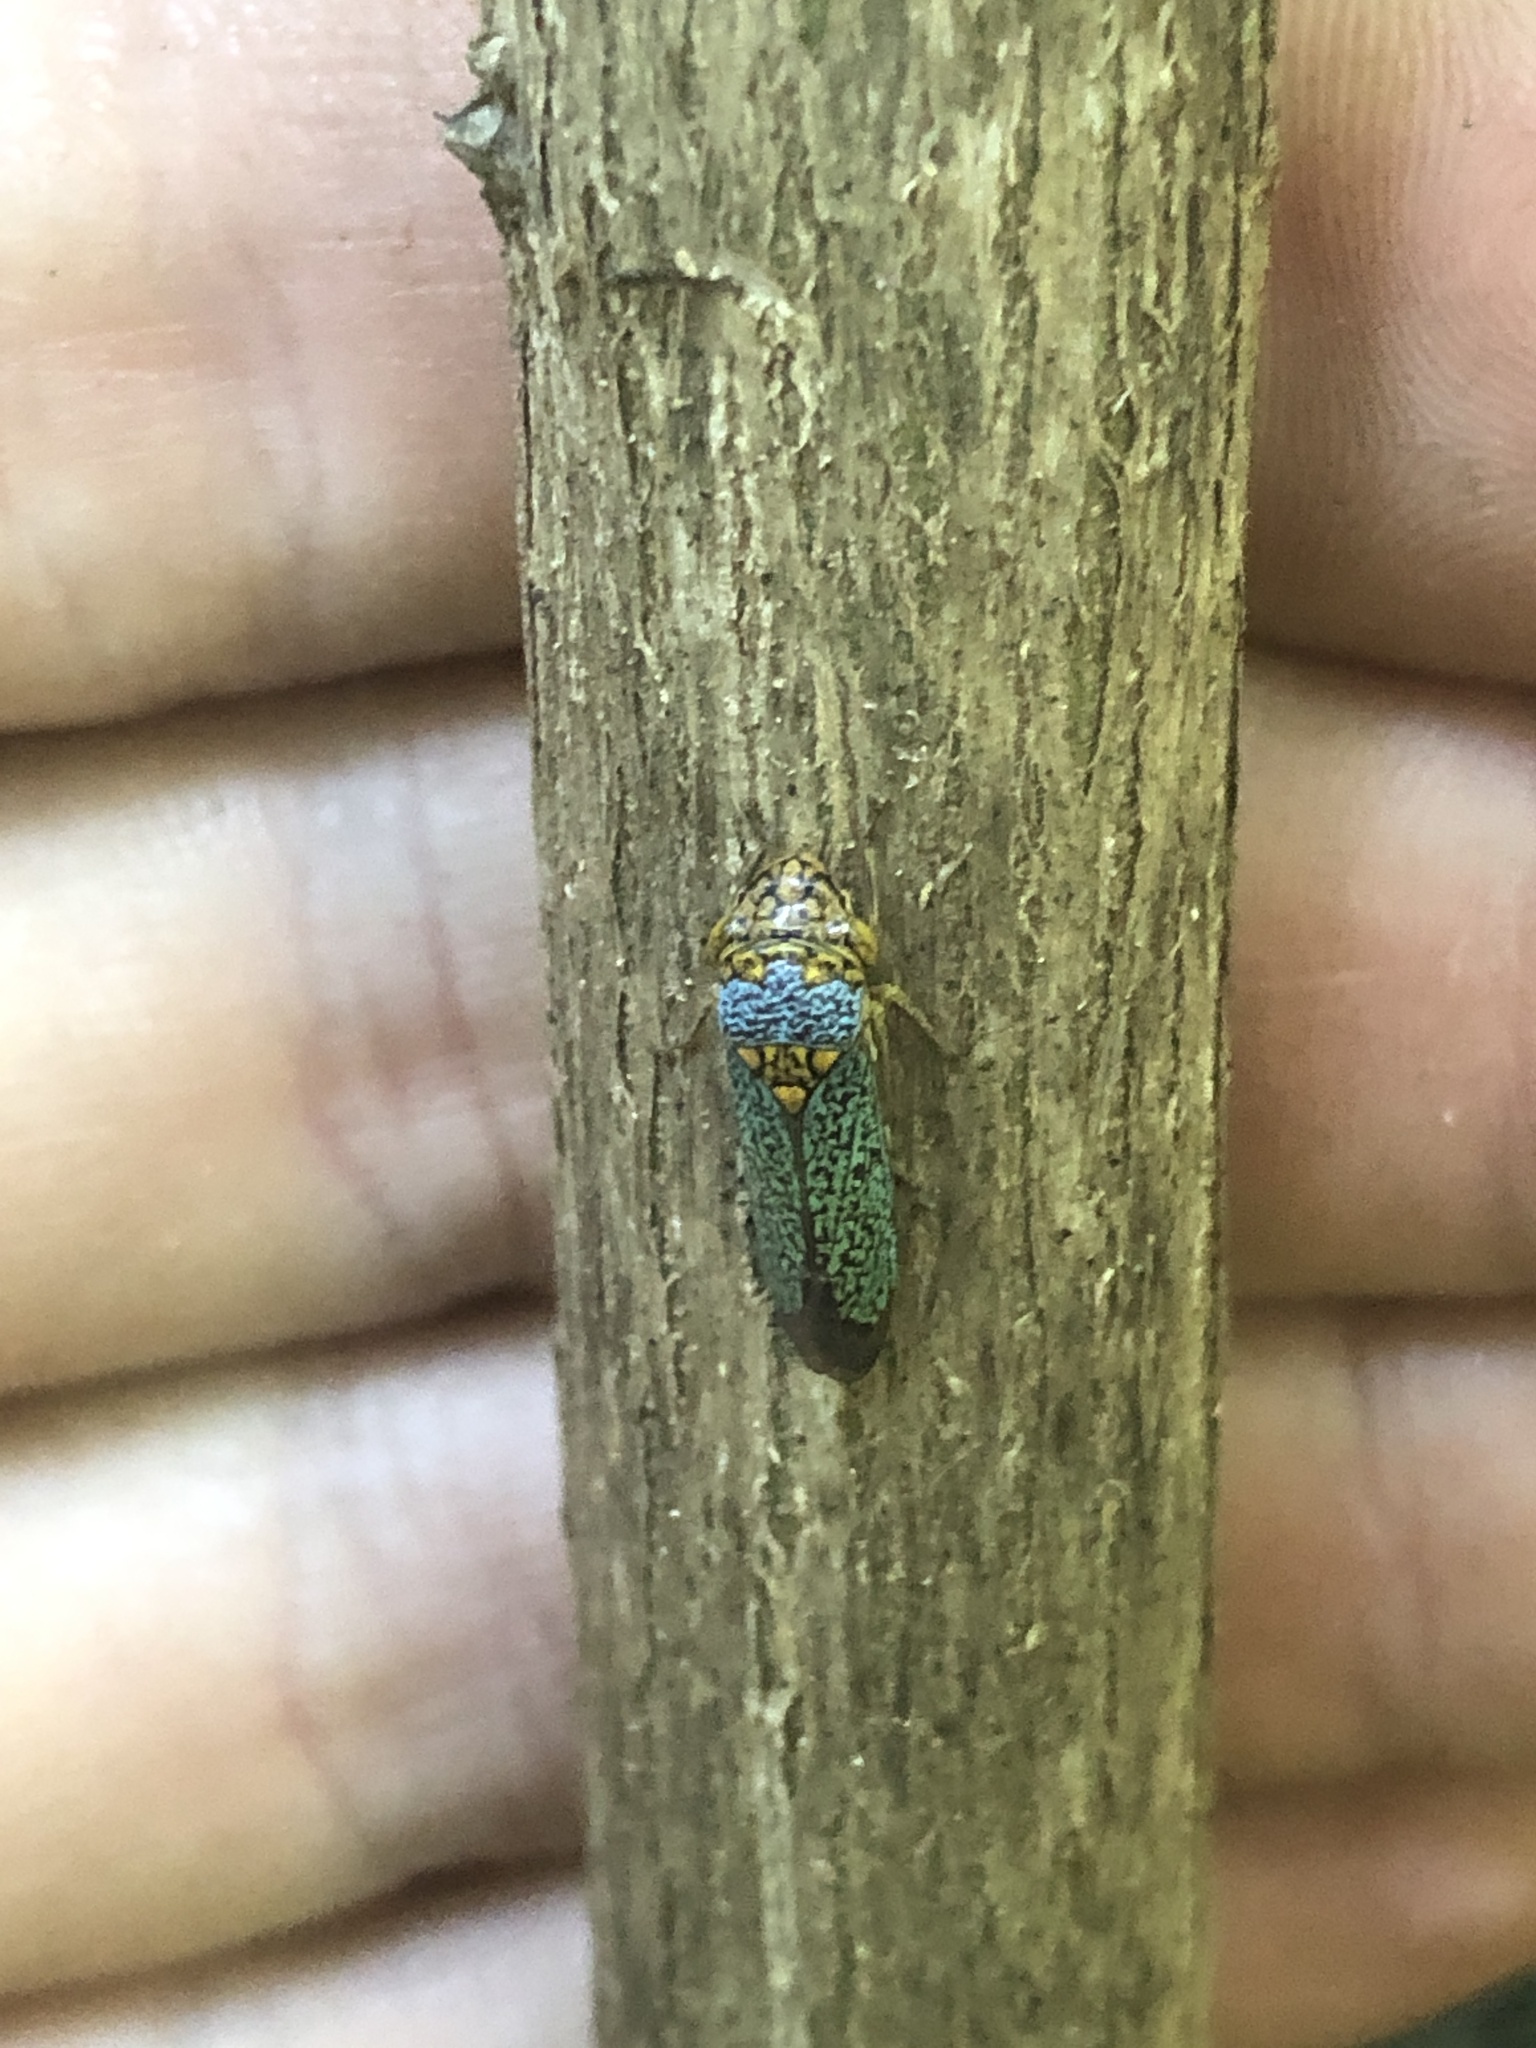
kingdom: Animalia
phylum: Arthropoda
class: Insecta
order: Hemiptera
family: Cicadellidae
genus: Oncometopia
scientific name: Oncometopia orbona
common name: Broad-headed sharpshooter
